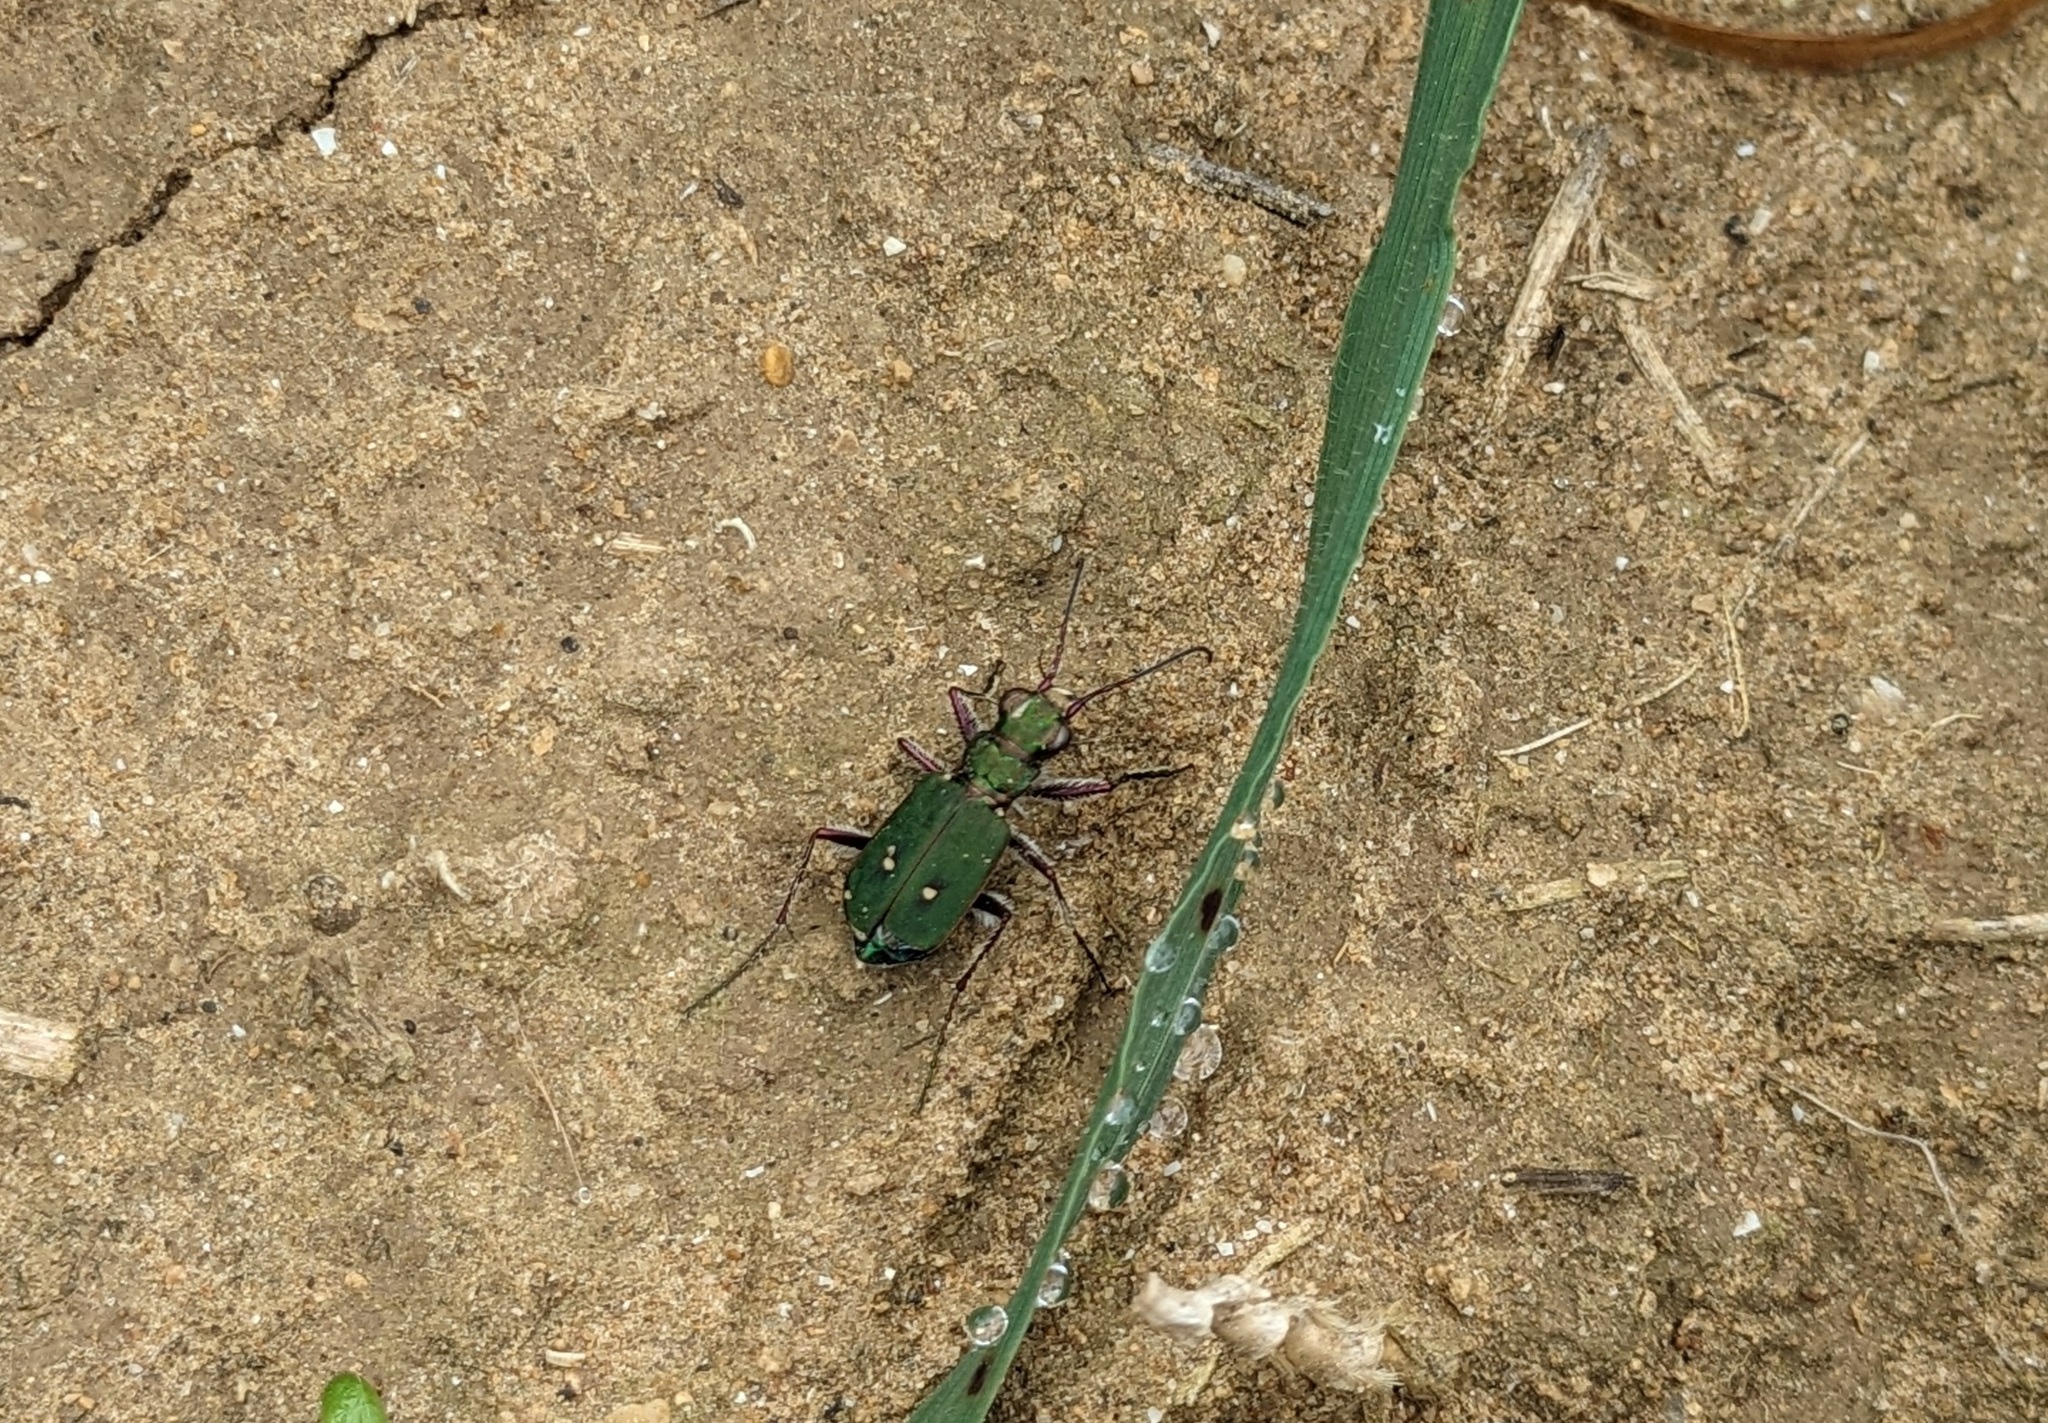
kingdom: Animalia
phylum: Arthropoda
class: Insecta
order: Coleoptera
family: Carabidae
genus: Cicindela
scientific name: Cicindela campestris
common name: Common tiger beetle
